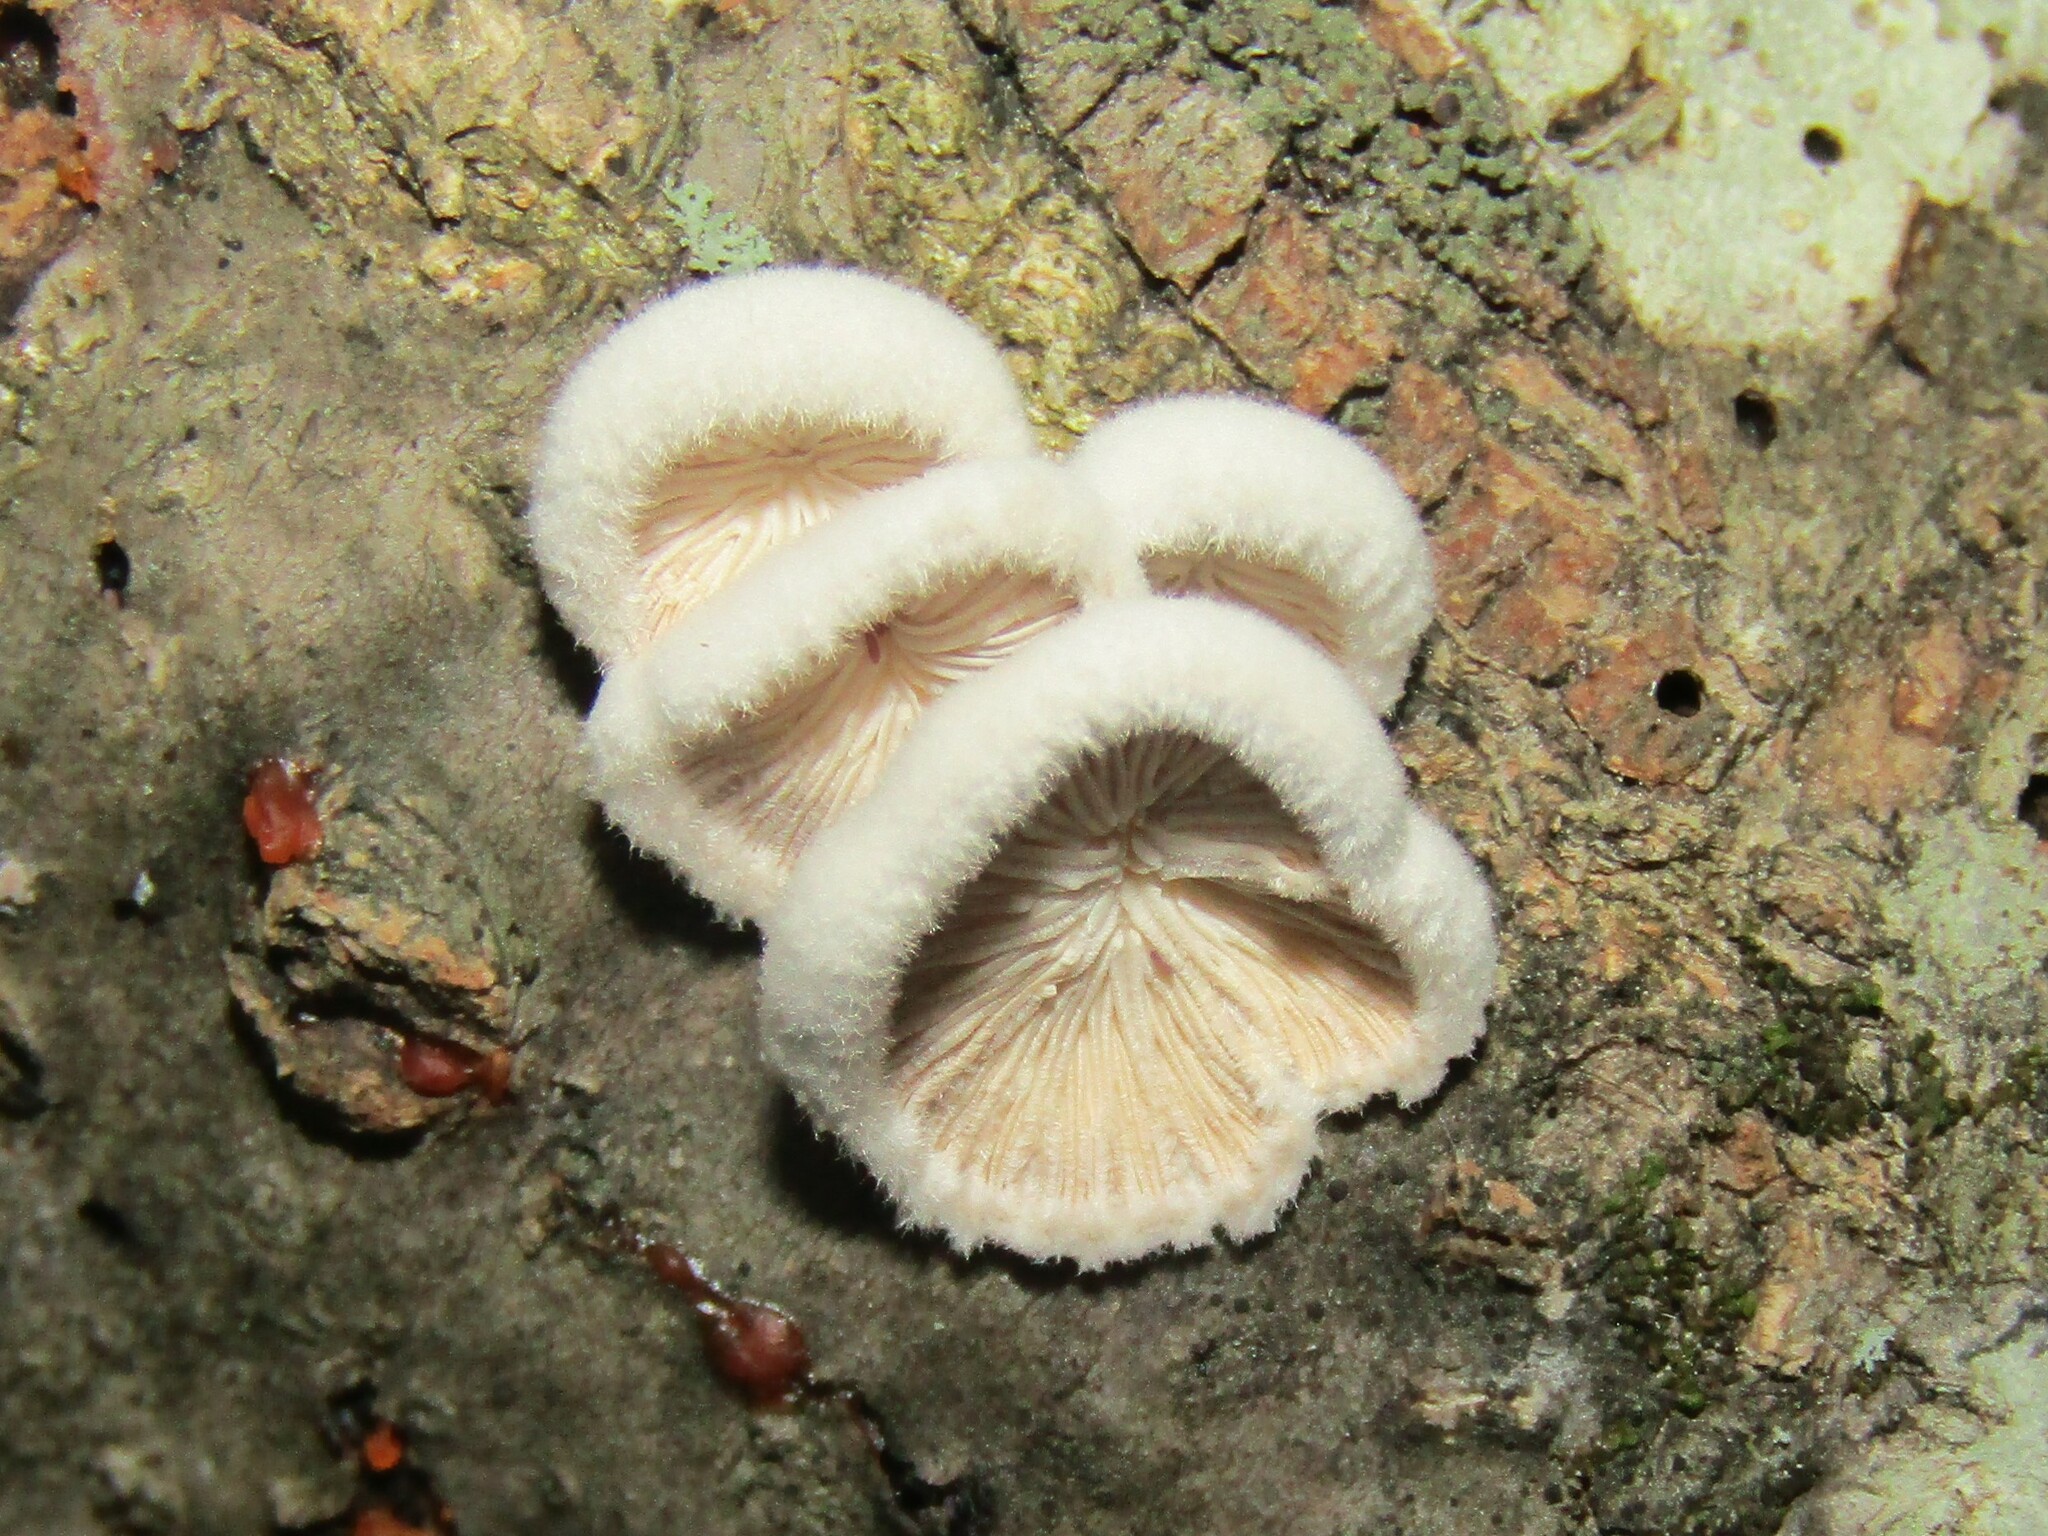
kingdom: Fungi
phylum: Basidiomycota
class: Agaricomycetes
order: Agaricales
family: Schizophyllaceae
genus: Schizophyllum
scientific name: Schizophyllum commune
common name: Common porecrust
